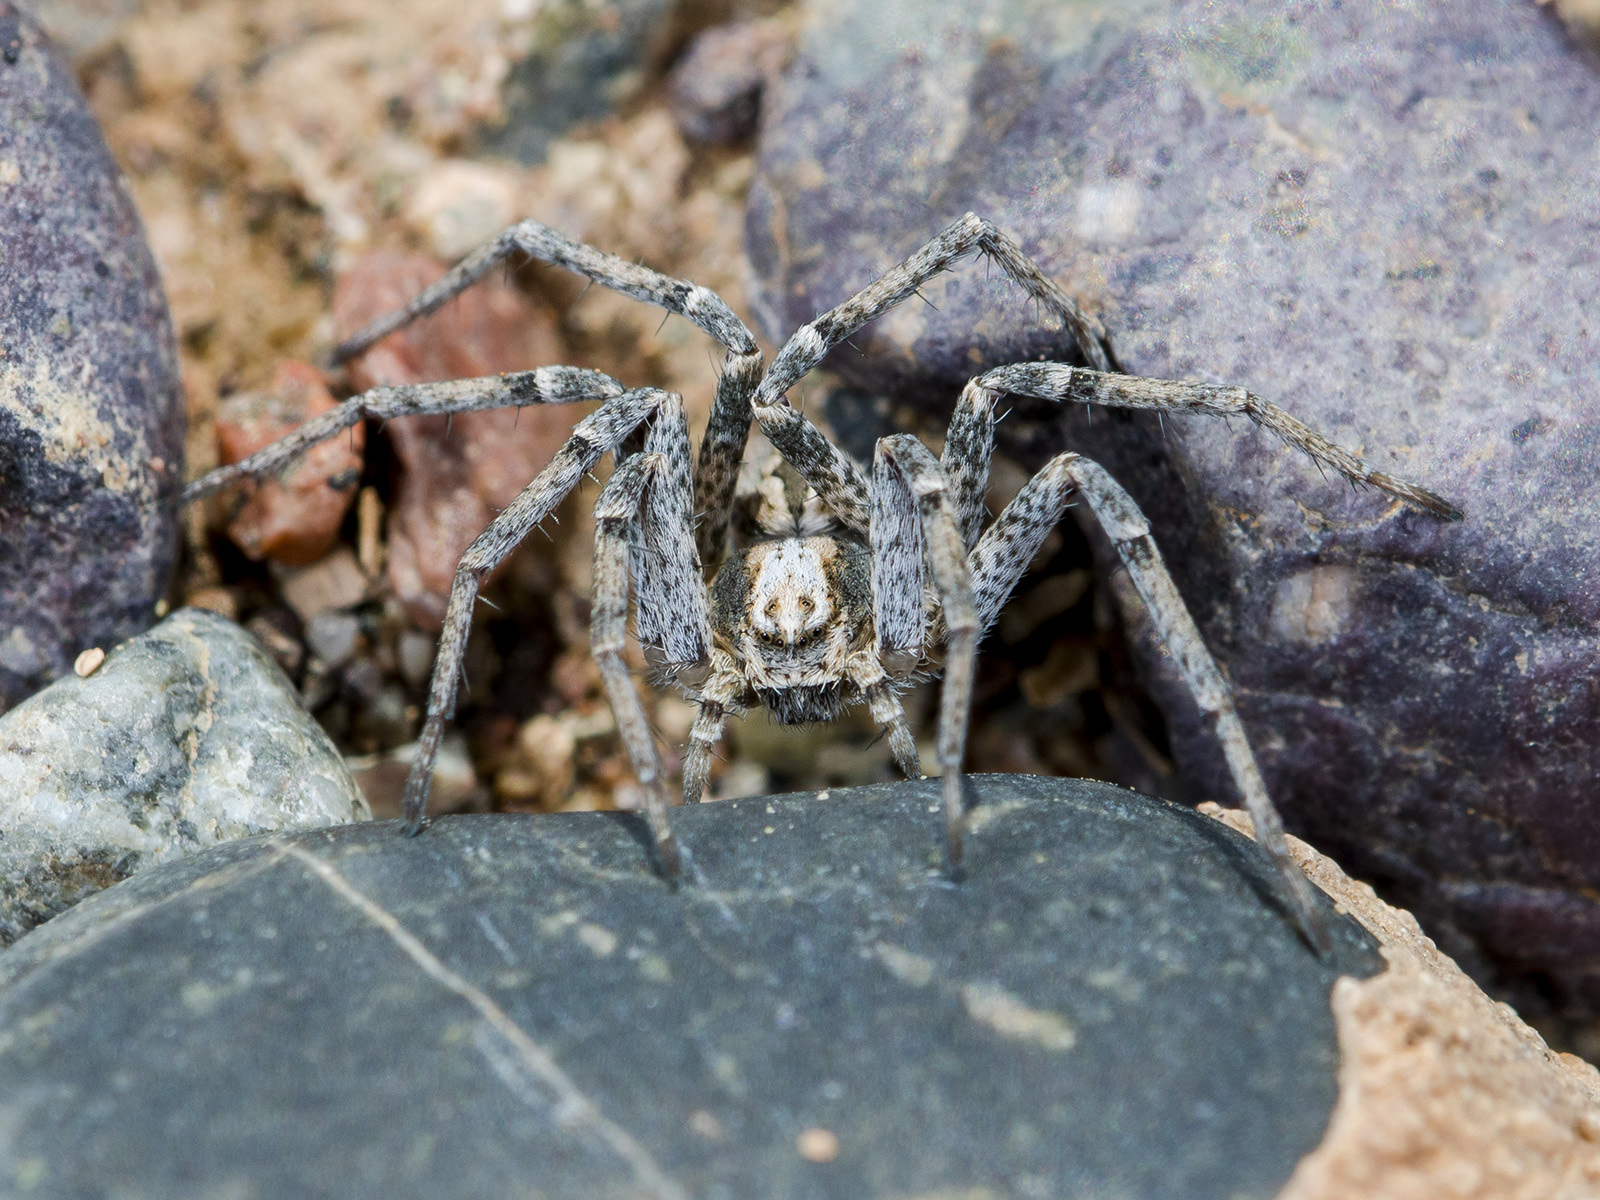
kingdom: Animalia
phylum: Arthropoda
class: Arachnida
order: Araneae
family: Philodromidae
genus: Thanatus
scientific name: Thanatus kitabensis
